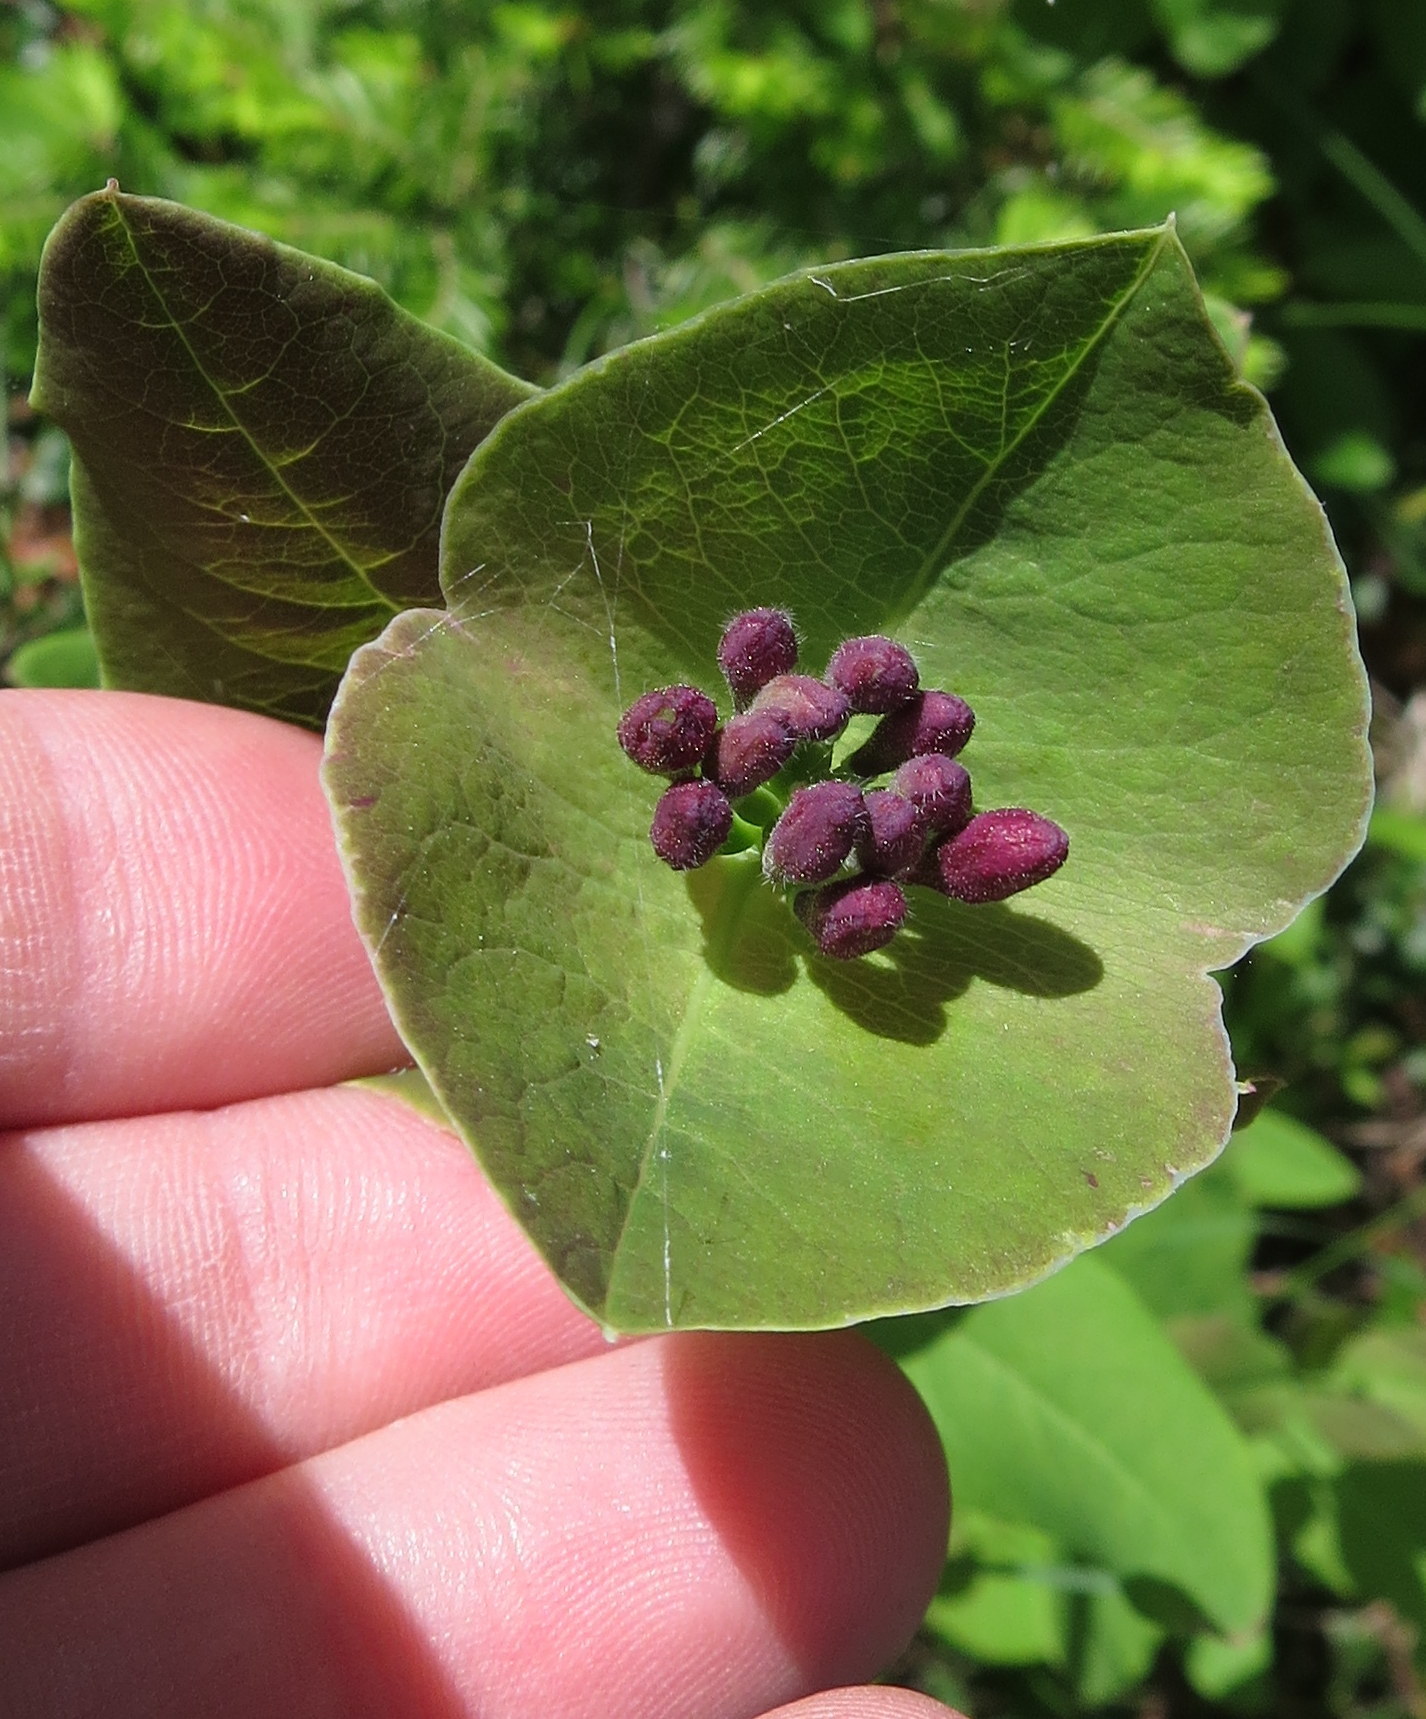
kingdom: Plantae
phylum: Tracheophyta
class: Magnoliopsida
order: Dipsacales
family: Caprifoliaceae
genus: Lonicera
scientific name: Lonicera dioica
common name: Limber honeysuckle
